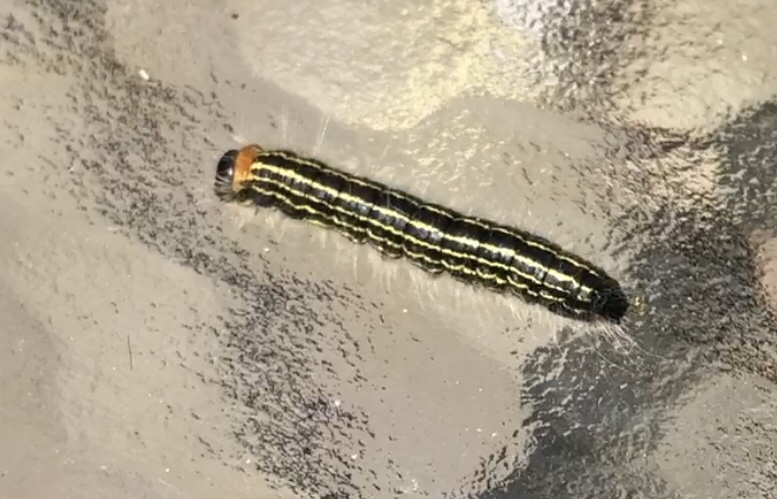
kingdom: Animalia
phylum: Arthropoda
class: Insecta
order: Lepidoptera
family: Notodontidae
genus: Datana
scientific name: Datana ministra
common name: Yellow-necked caterpillar moth
